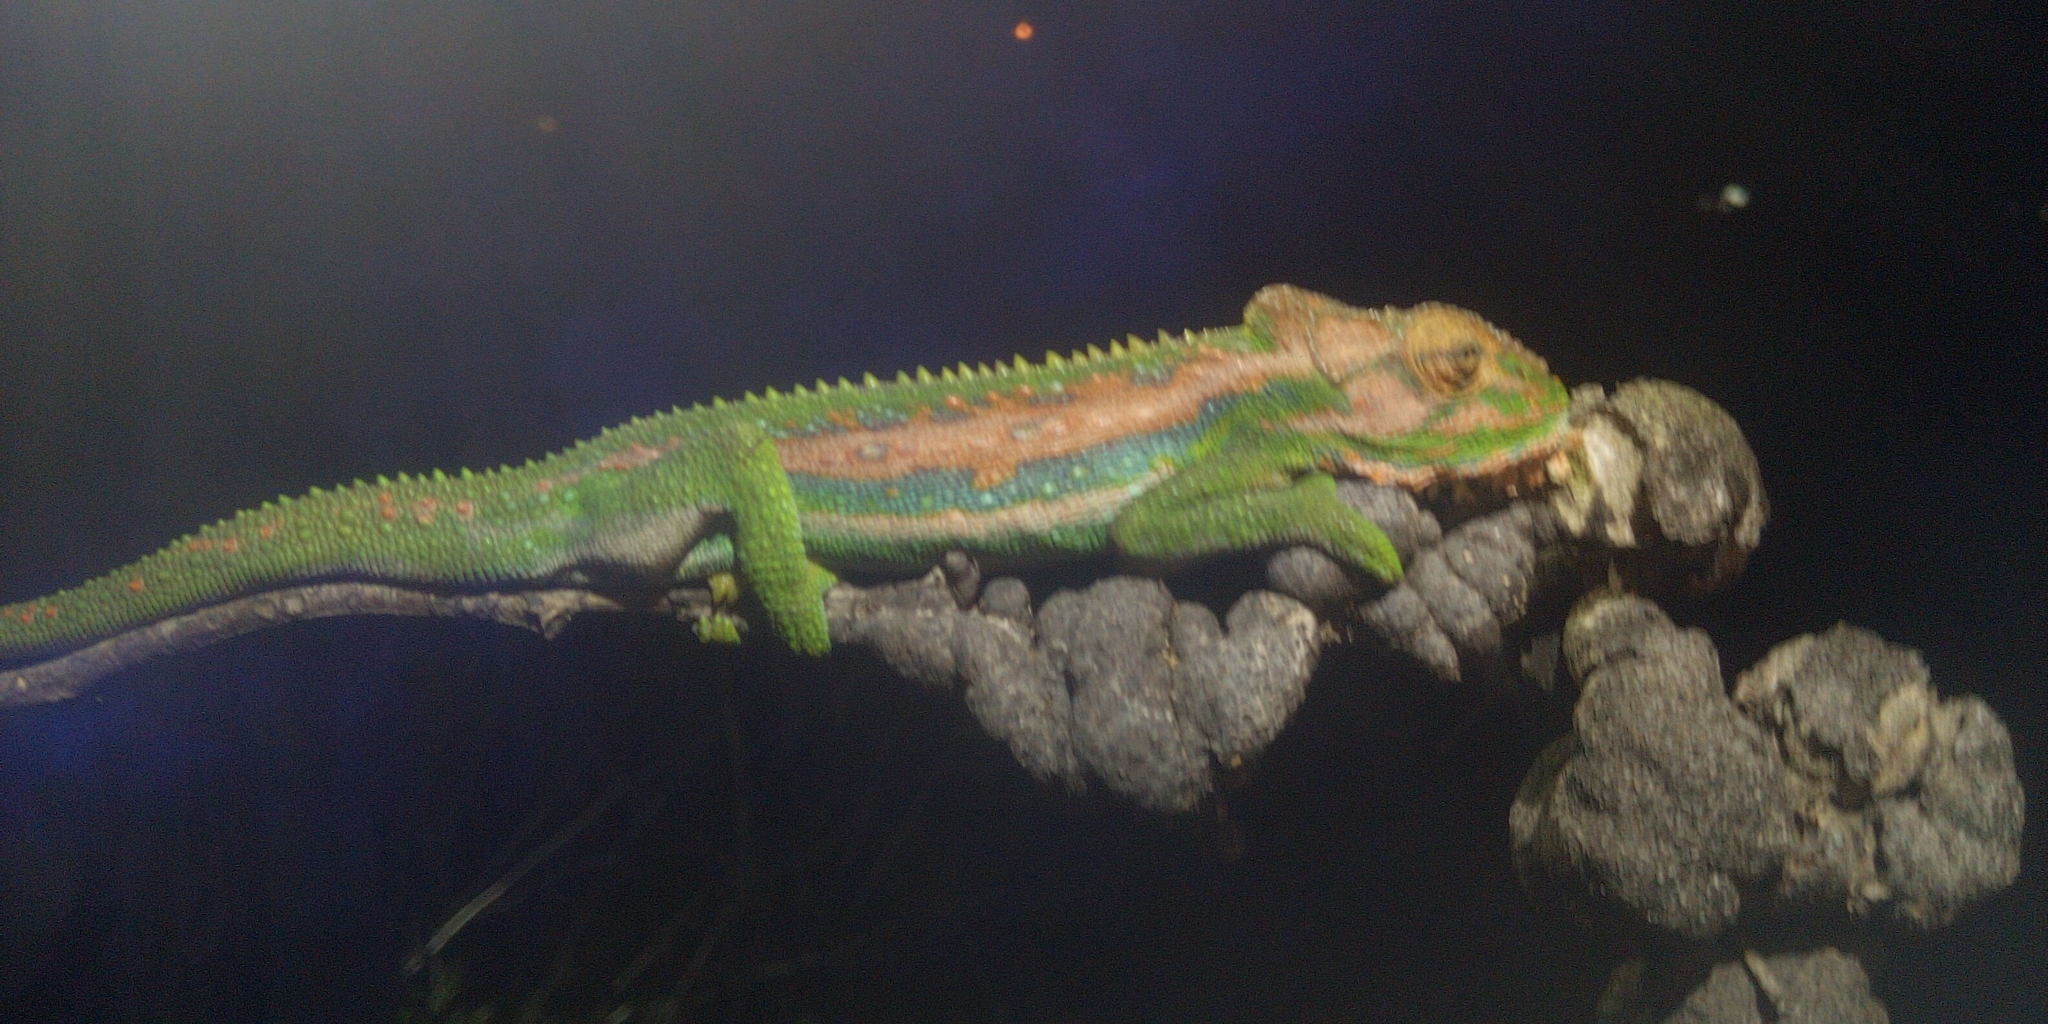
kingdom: Animalia
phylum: Chordata
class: Squamata
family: Chamaeleonidae
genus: Bradypodion
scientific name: Bradypodion pumilum
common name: Cape dwarf chameleon
